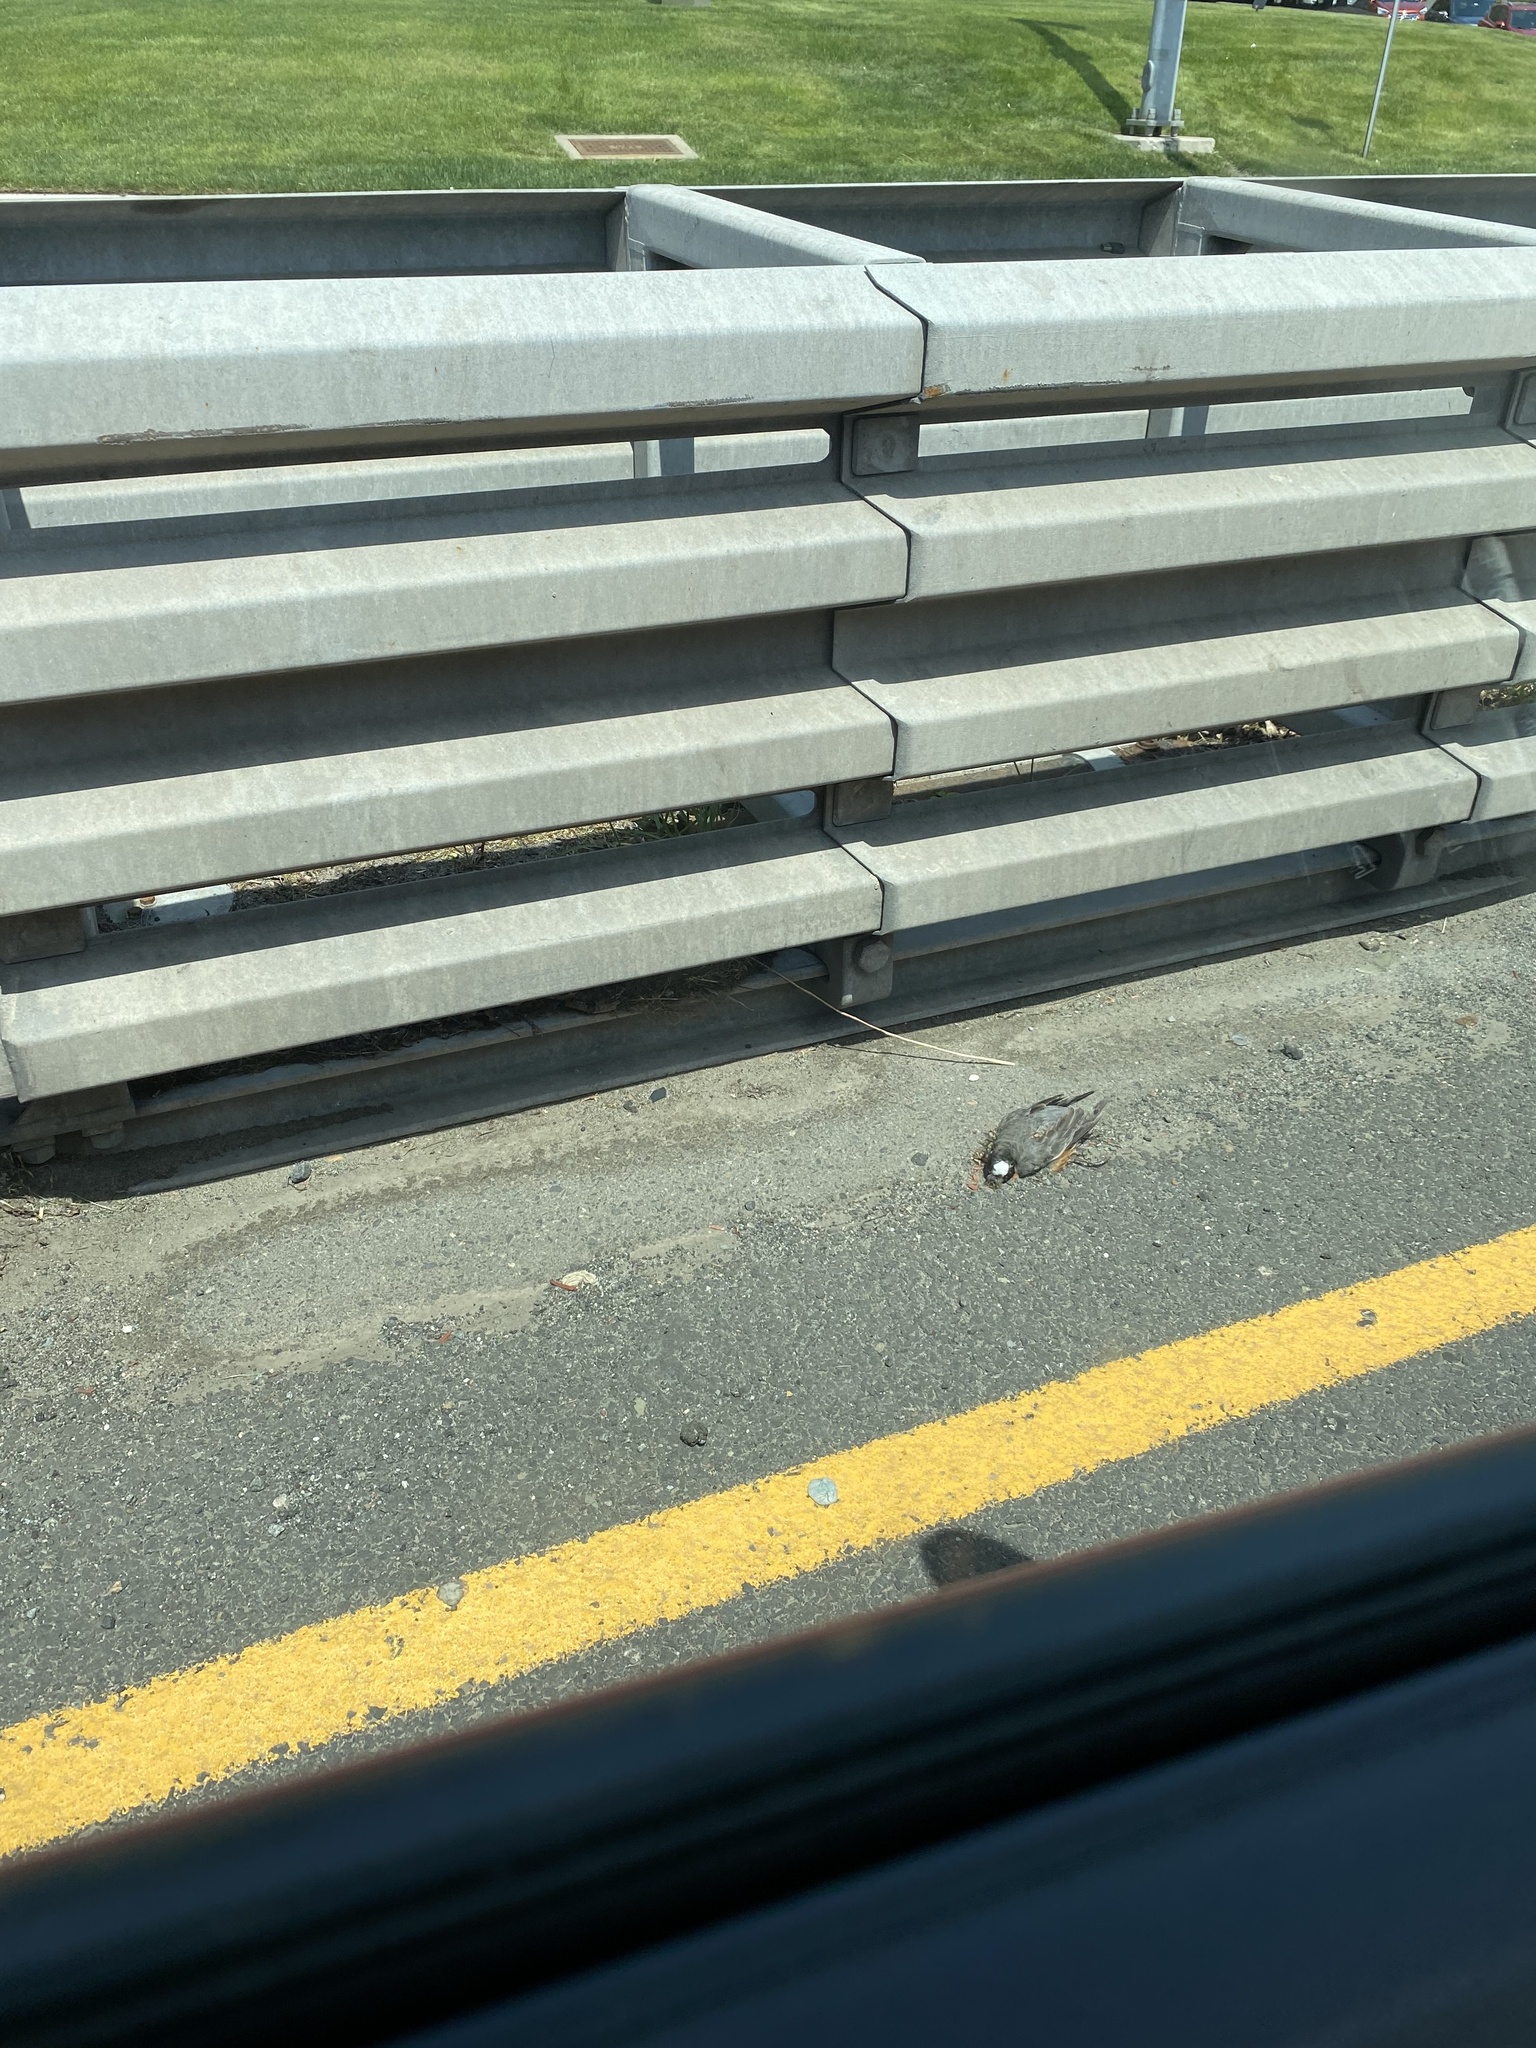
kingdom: Animalia
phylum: Chordata
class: Aves
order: Passeriformes
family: Turdidae
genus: Turdus
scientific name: Turdus migratorius
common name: American robin
